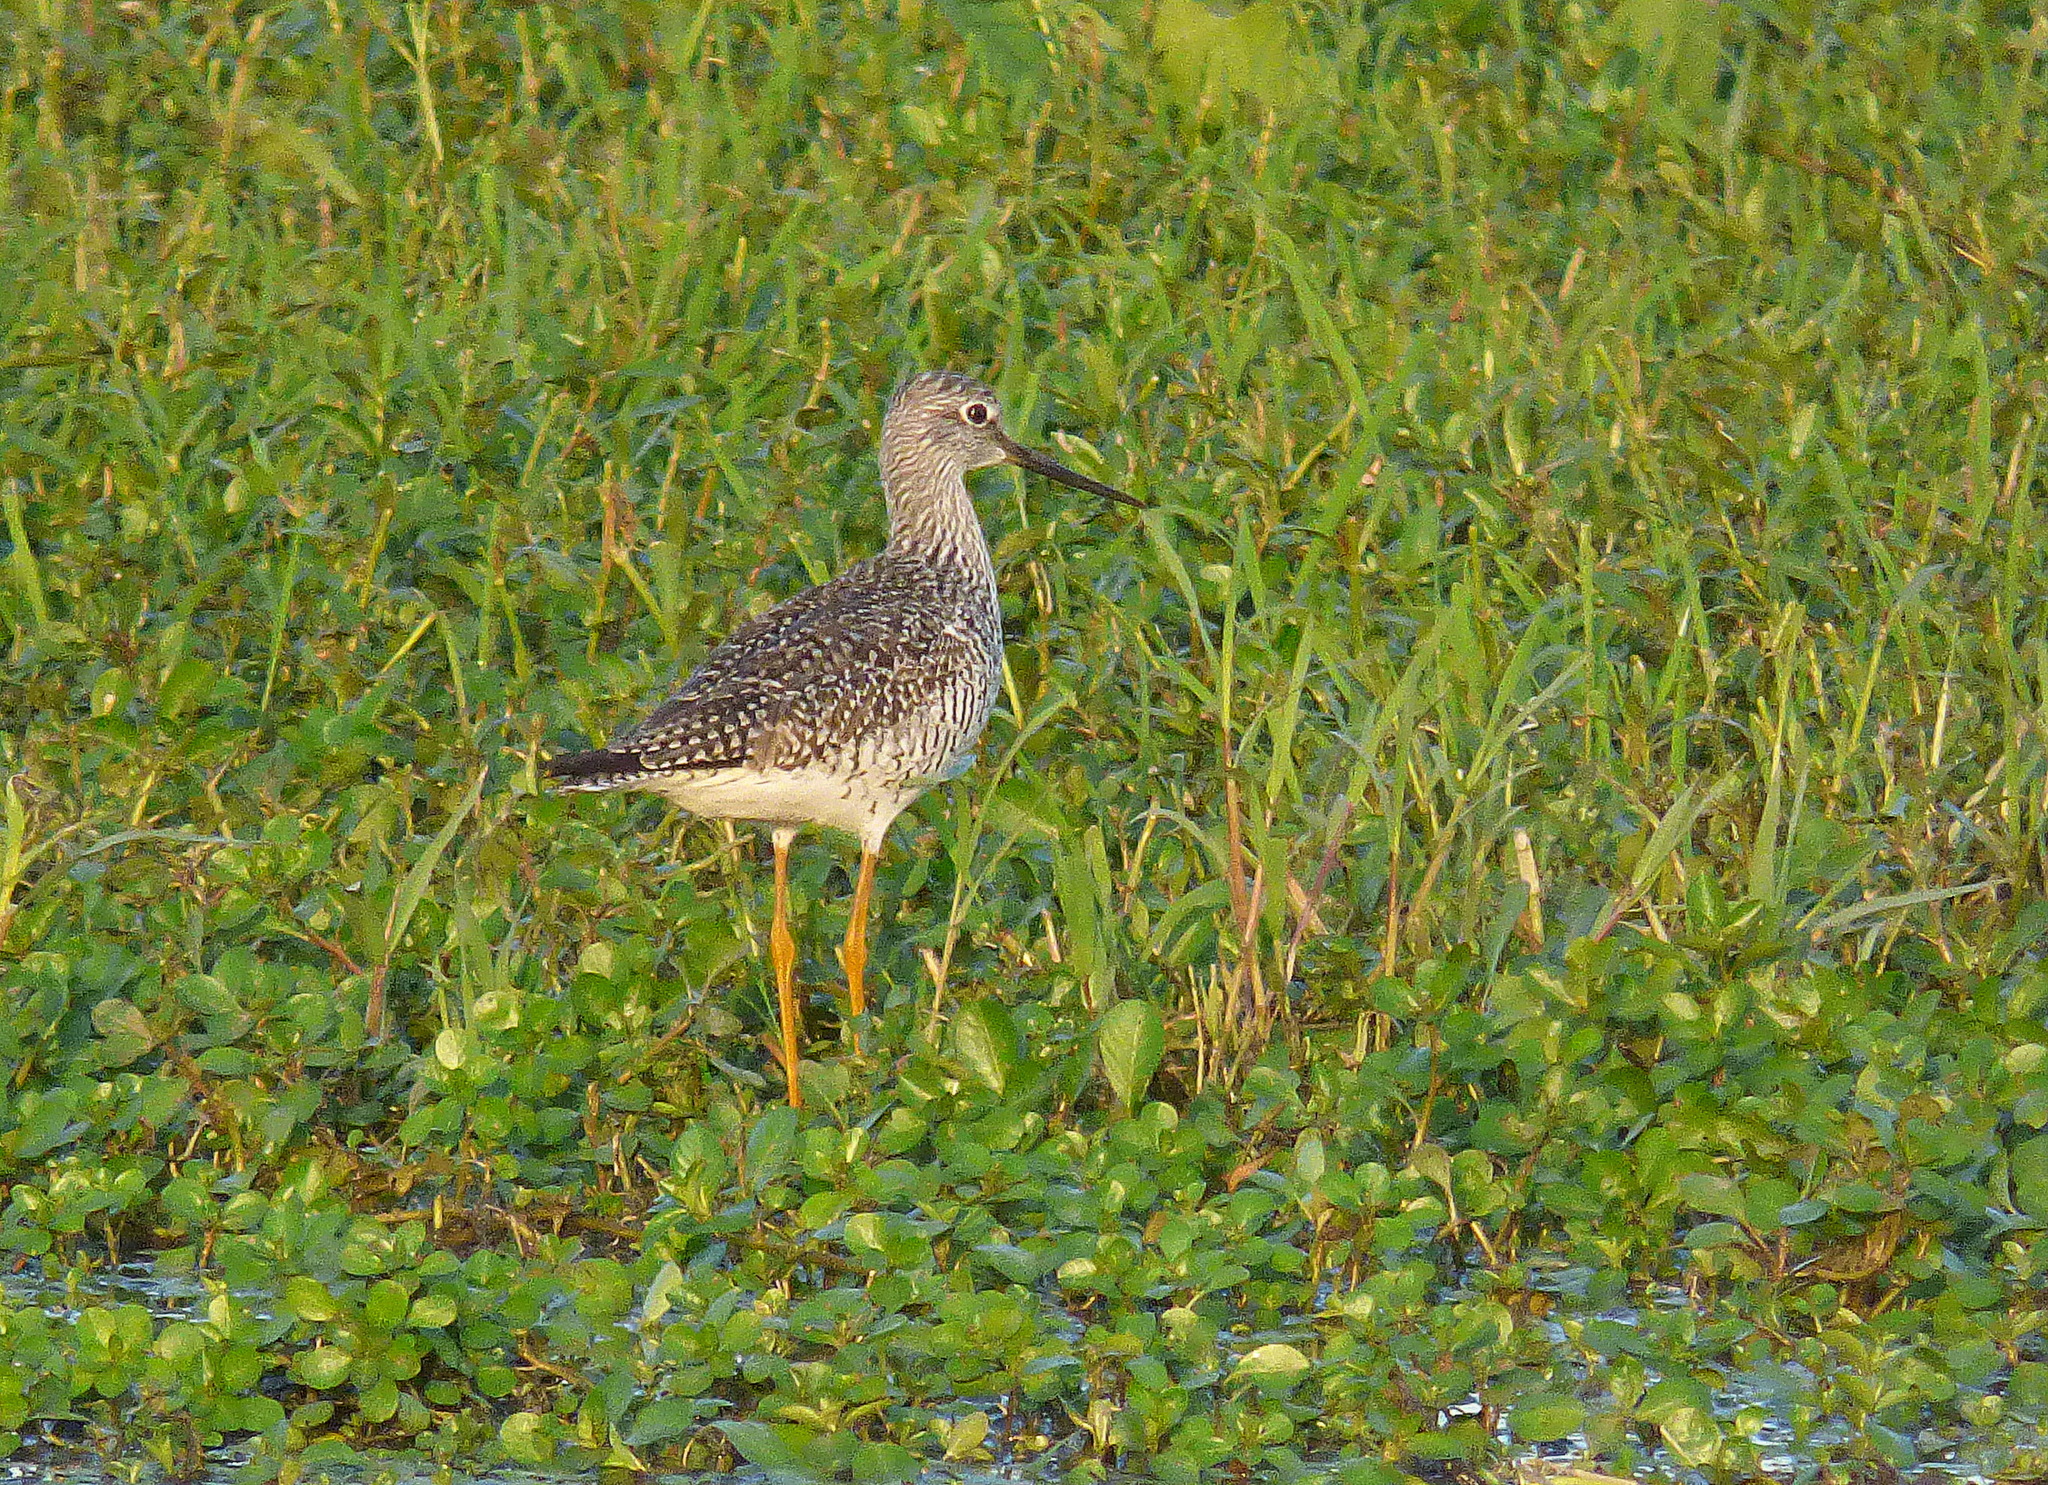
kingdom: Animalia
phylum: Chordata
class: Aves
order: Charadriiformes
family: Scolopacidae
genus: Tringa
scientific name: Tringa melanoleuca
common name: Greater yellowlegs
